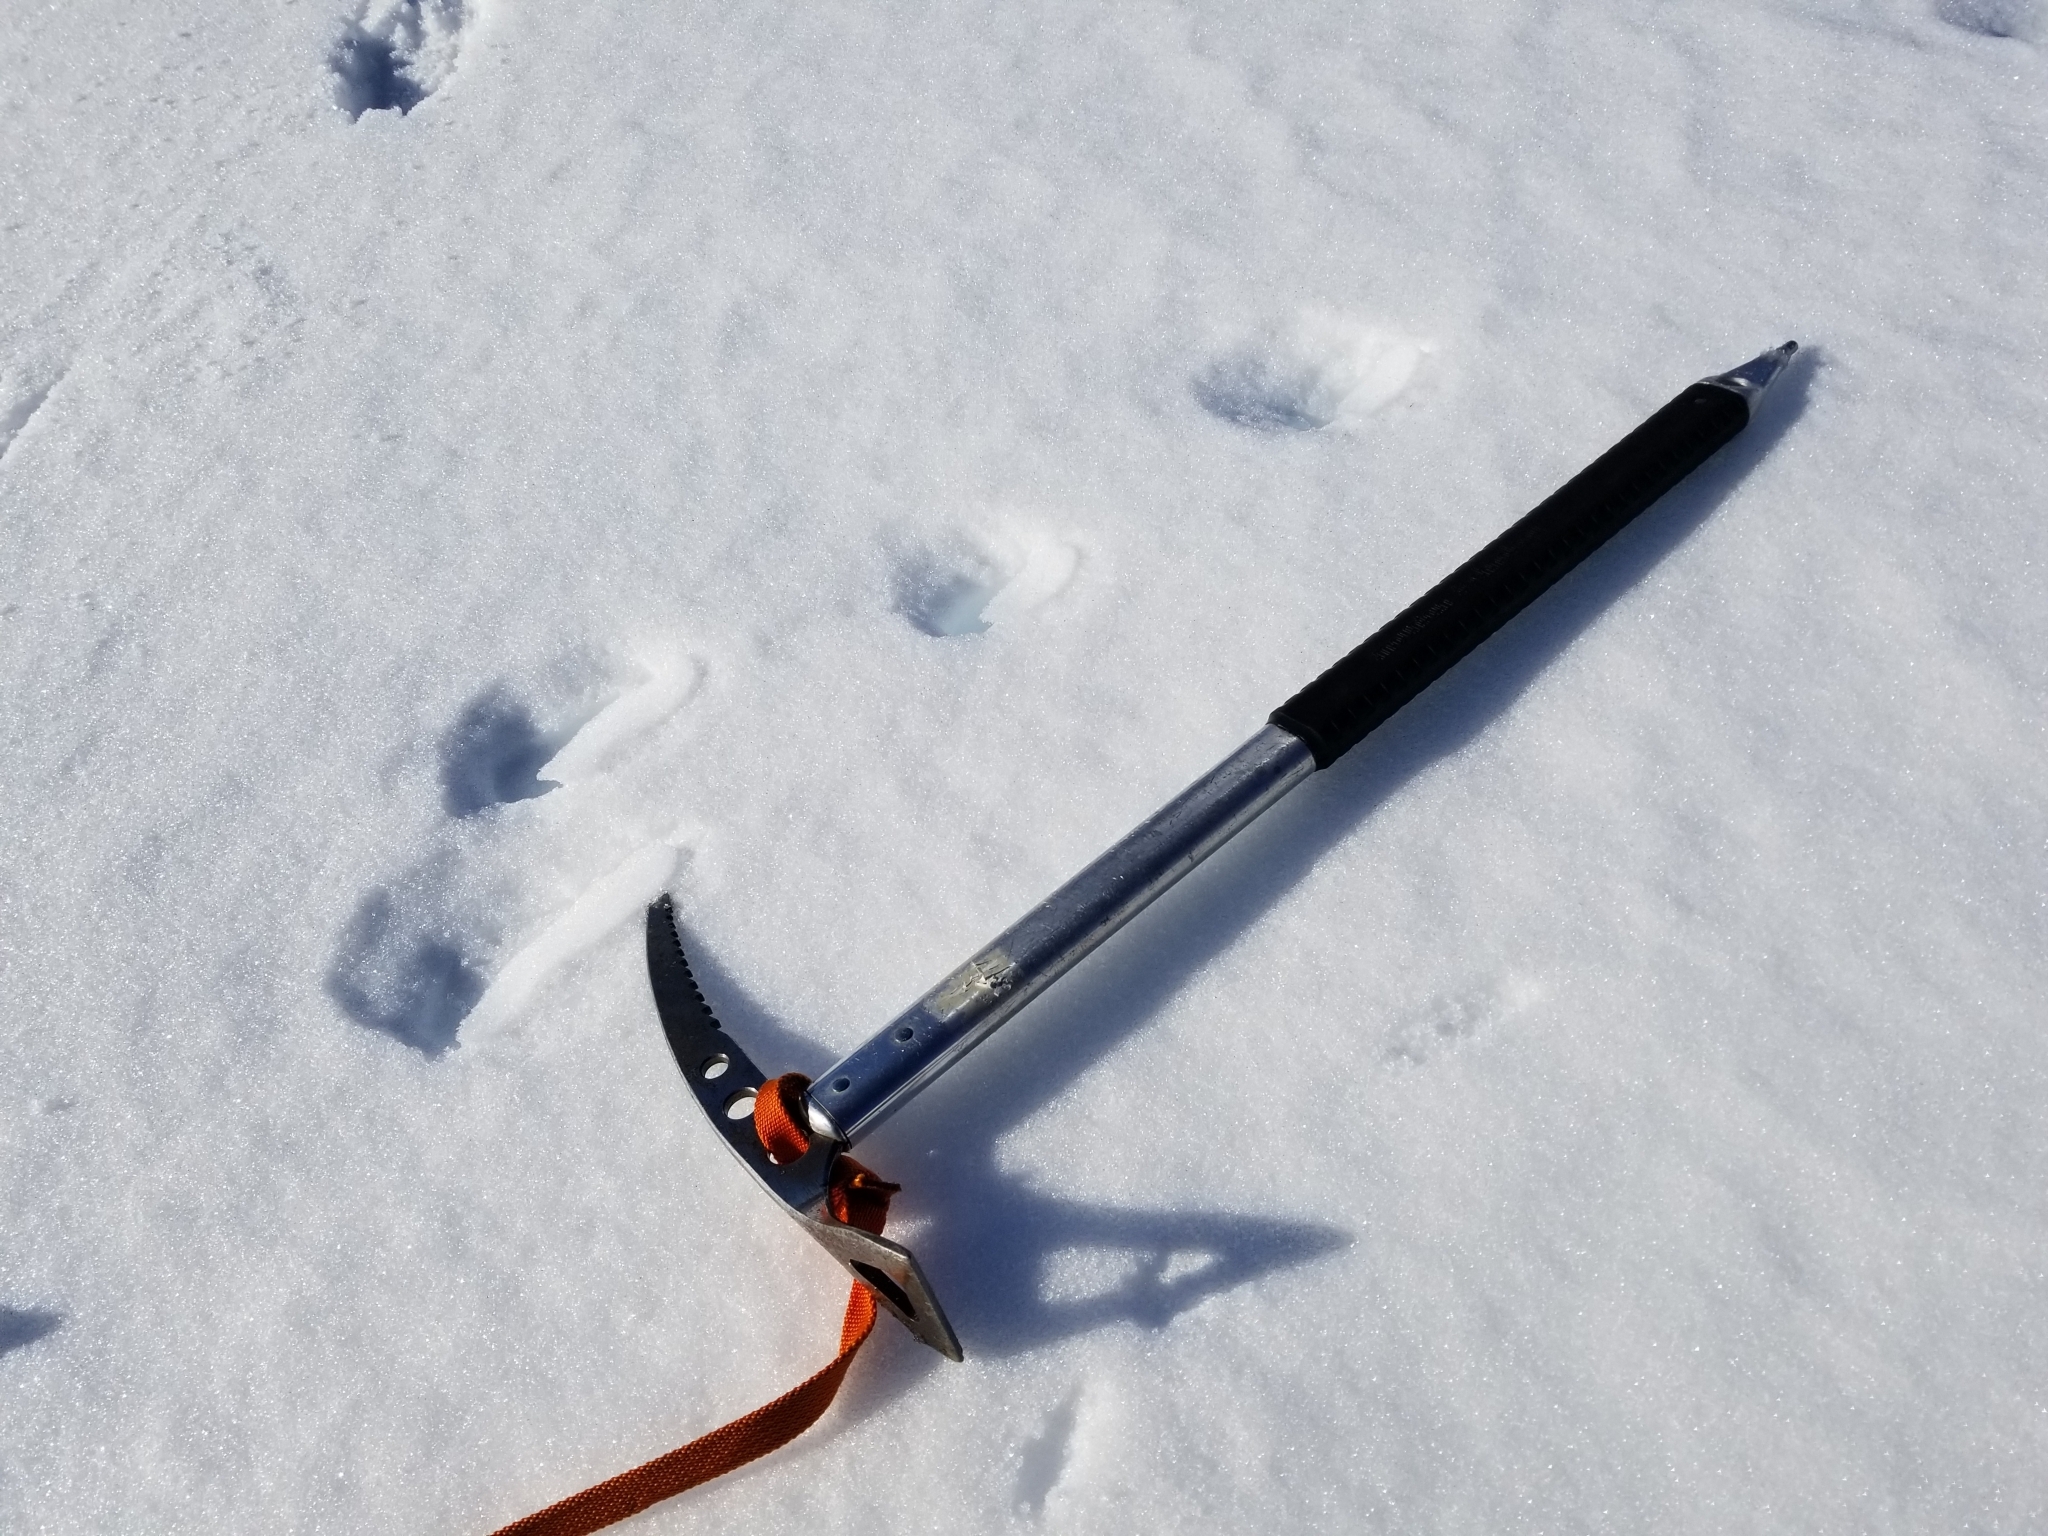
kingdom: Animalia
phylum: Chordata
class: Mammalia
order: Lagomorpha
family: Leporidae
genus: Lepus
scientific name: Lepus europaeus
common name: European hare
